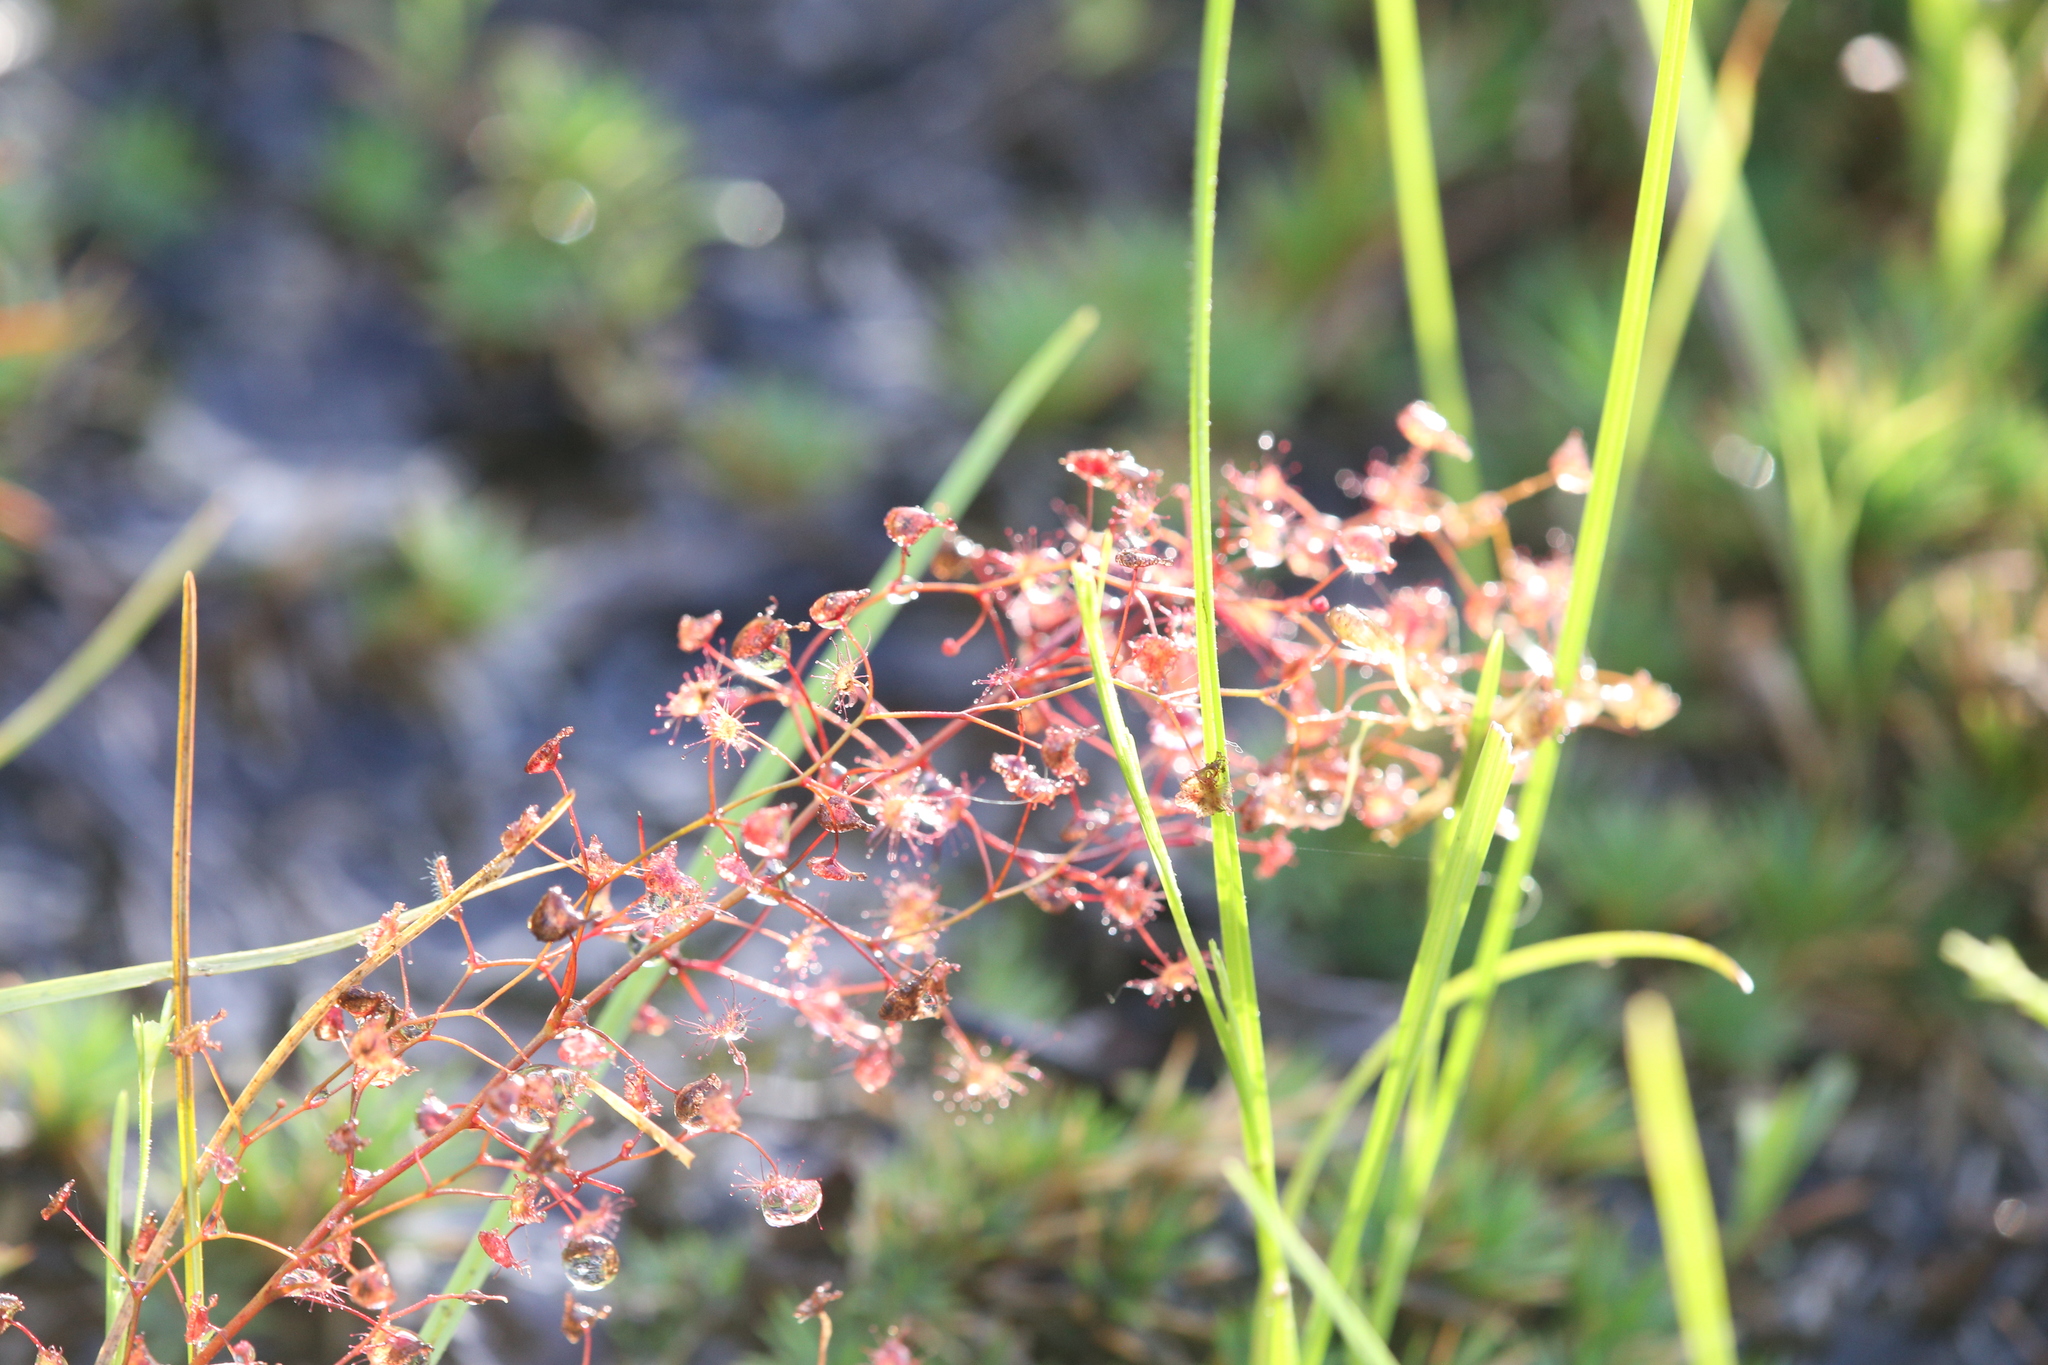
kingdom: Plantae
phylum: Tracheophyta
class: Magnoliopsida
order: Caryophyllales
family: Droseraceae
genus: Drosera
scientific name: Drosera peltata
